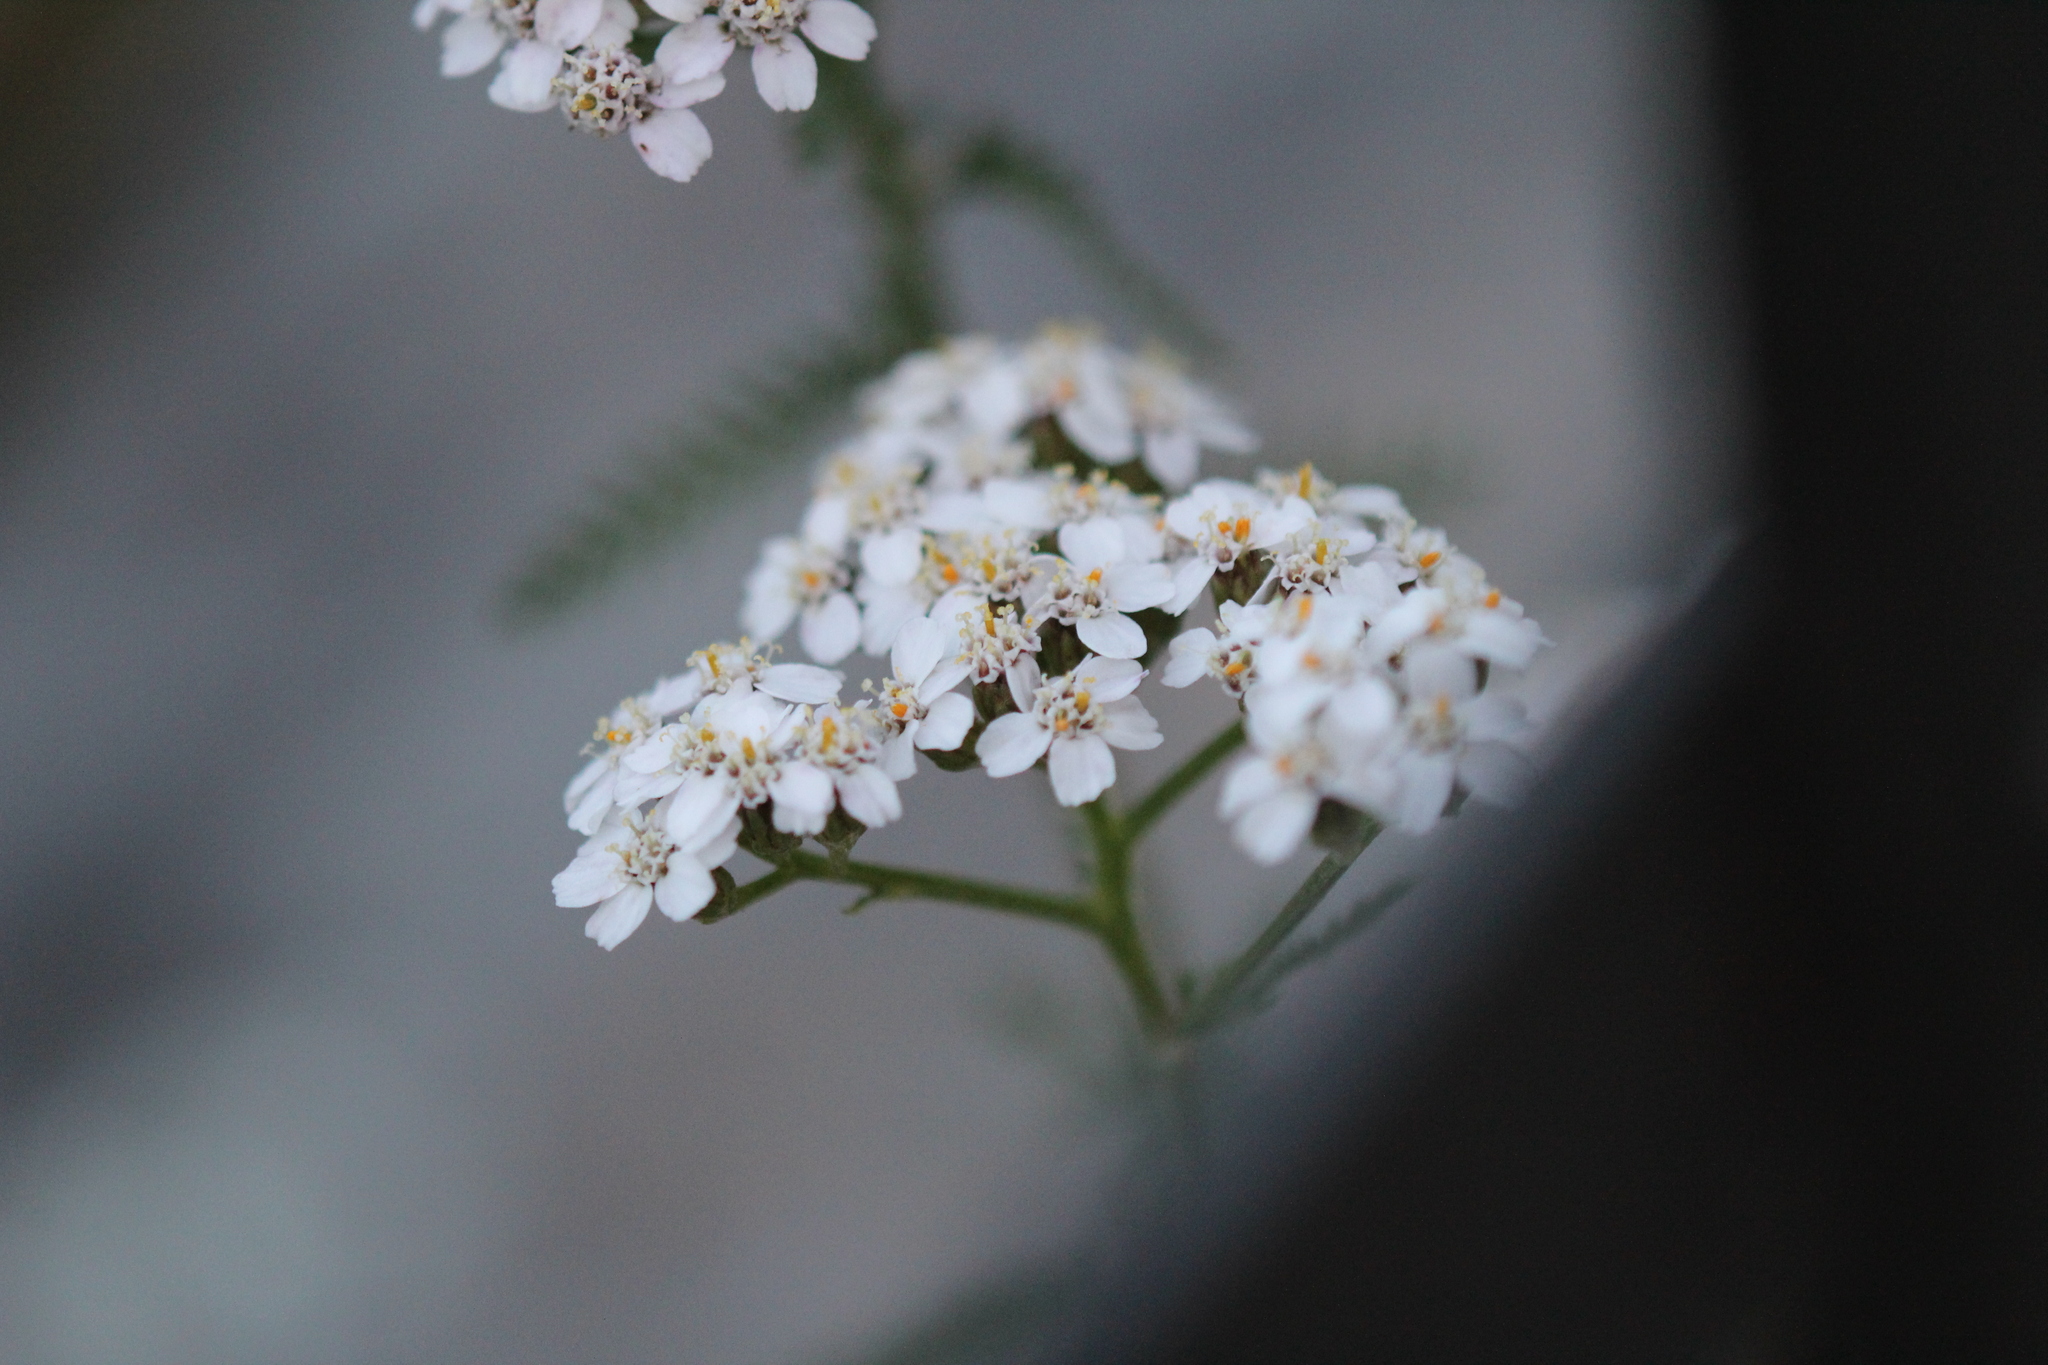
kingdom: Plantae
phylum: Tracheophyta
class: Magnoliopsida
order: Asterales
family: Asteraceae
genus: Achillea
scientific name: Achillea millefolium
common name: Yarrow
